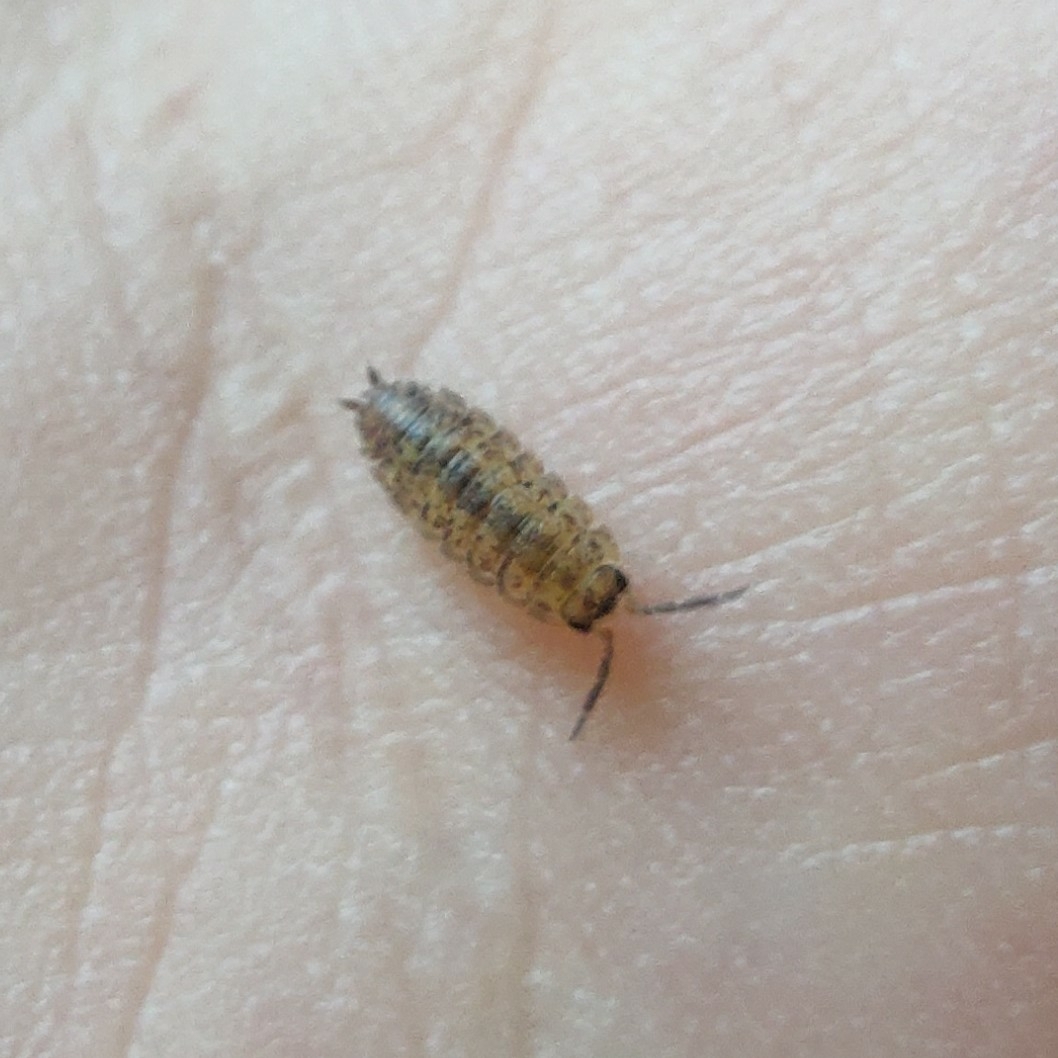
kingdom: Animalia
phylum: Arthropoda
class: Malacostraca
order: Isopoda
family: Porcellionidae
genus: Porcellio
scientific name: Porcellio scaber
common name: Common rough woodlouse
